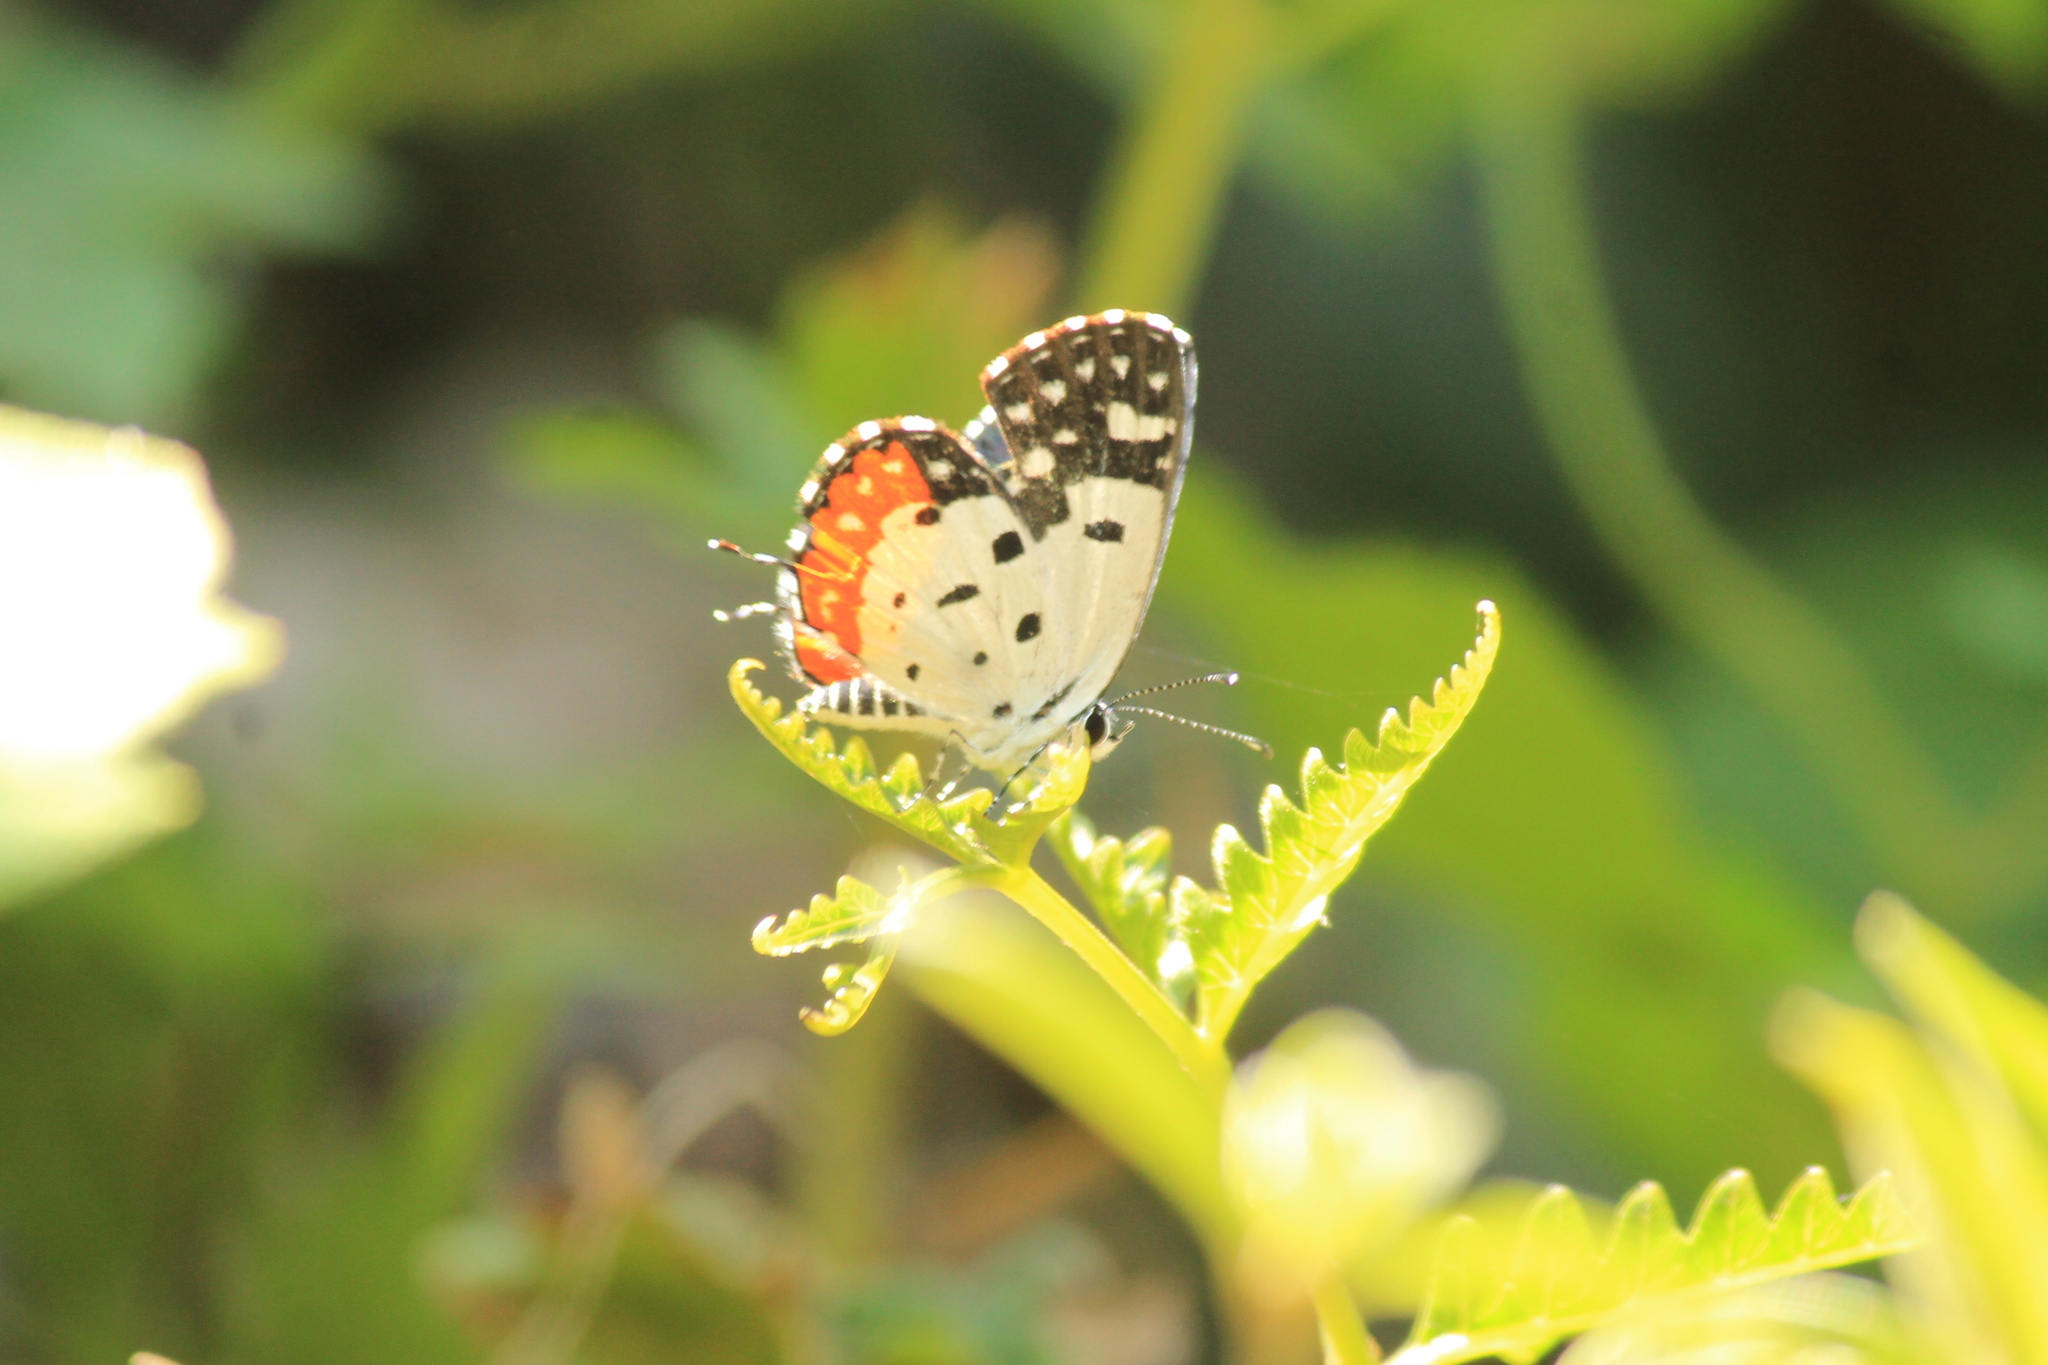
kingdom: Animalia
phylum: Arthropoda
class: Insecta
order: Lepidoptera
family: Lycaenidae
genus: Talicada
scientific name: Talicada nyseus
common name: Red pierrot
